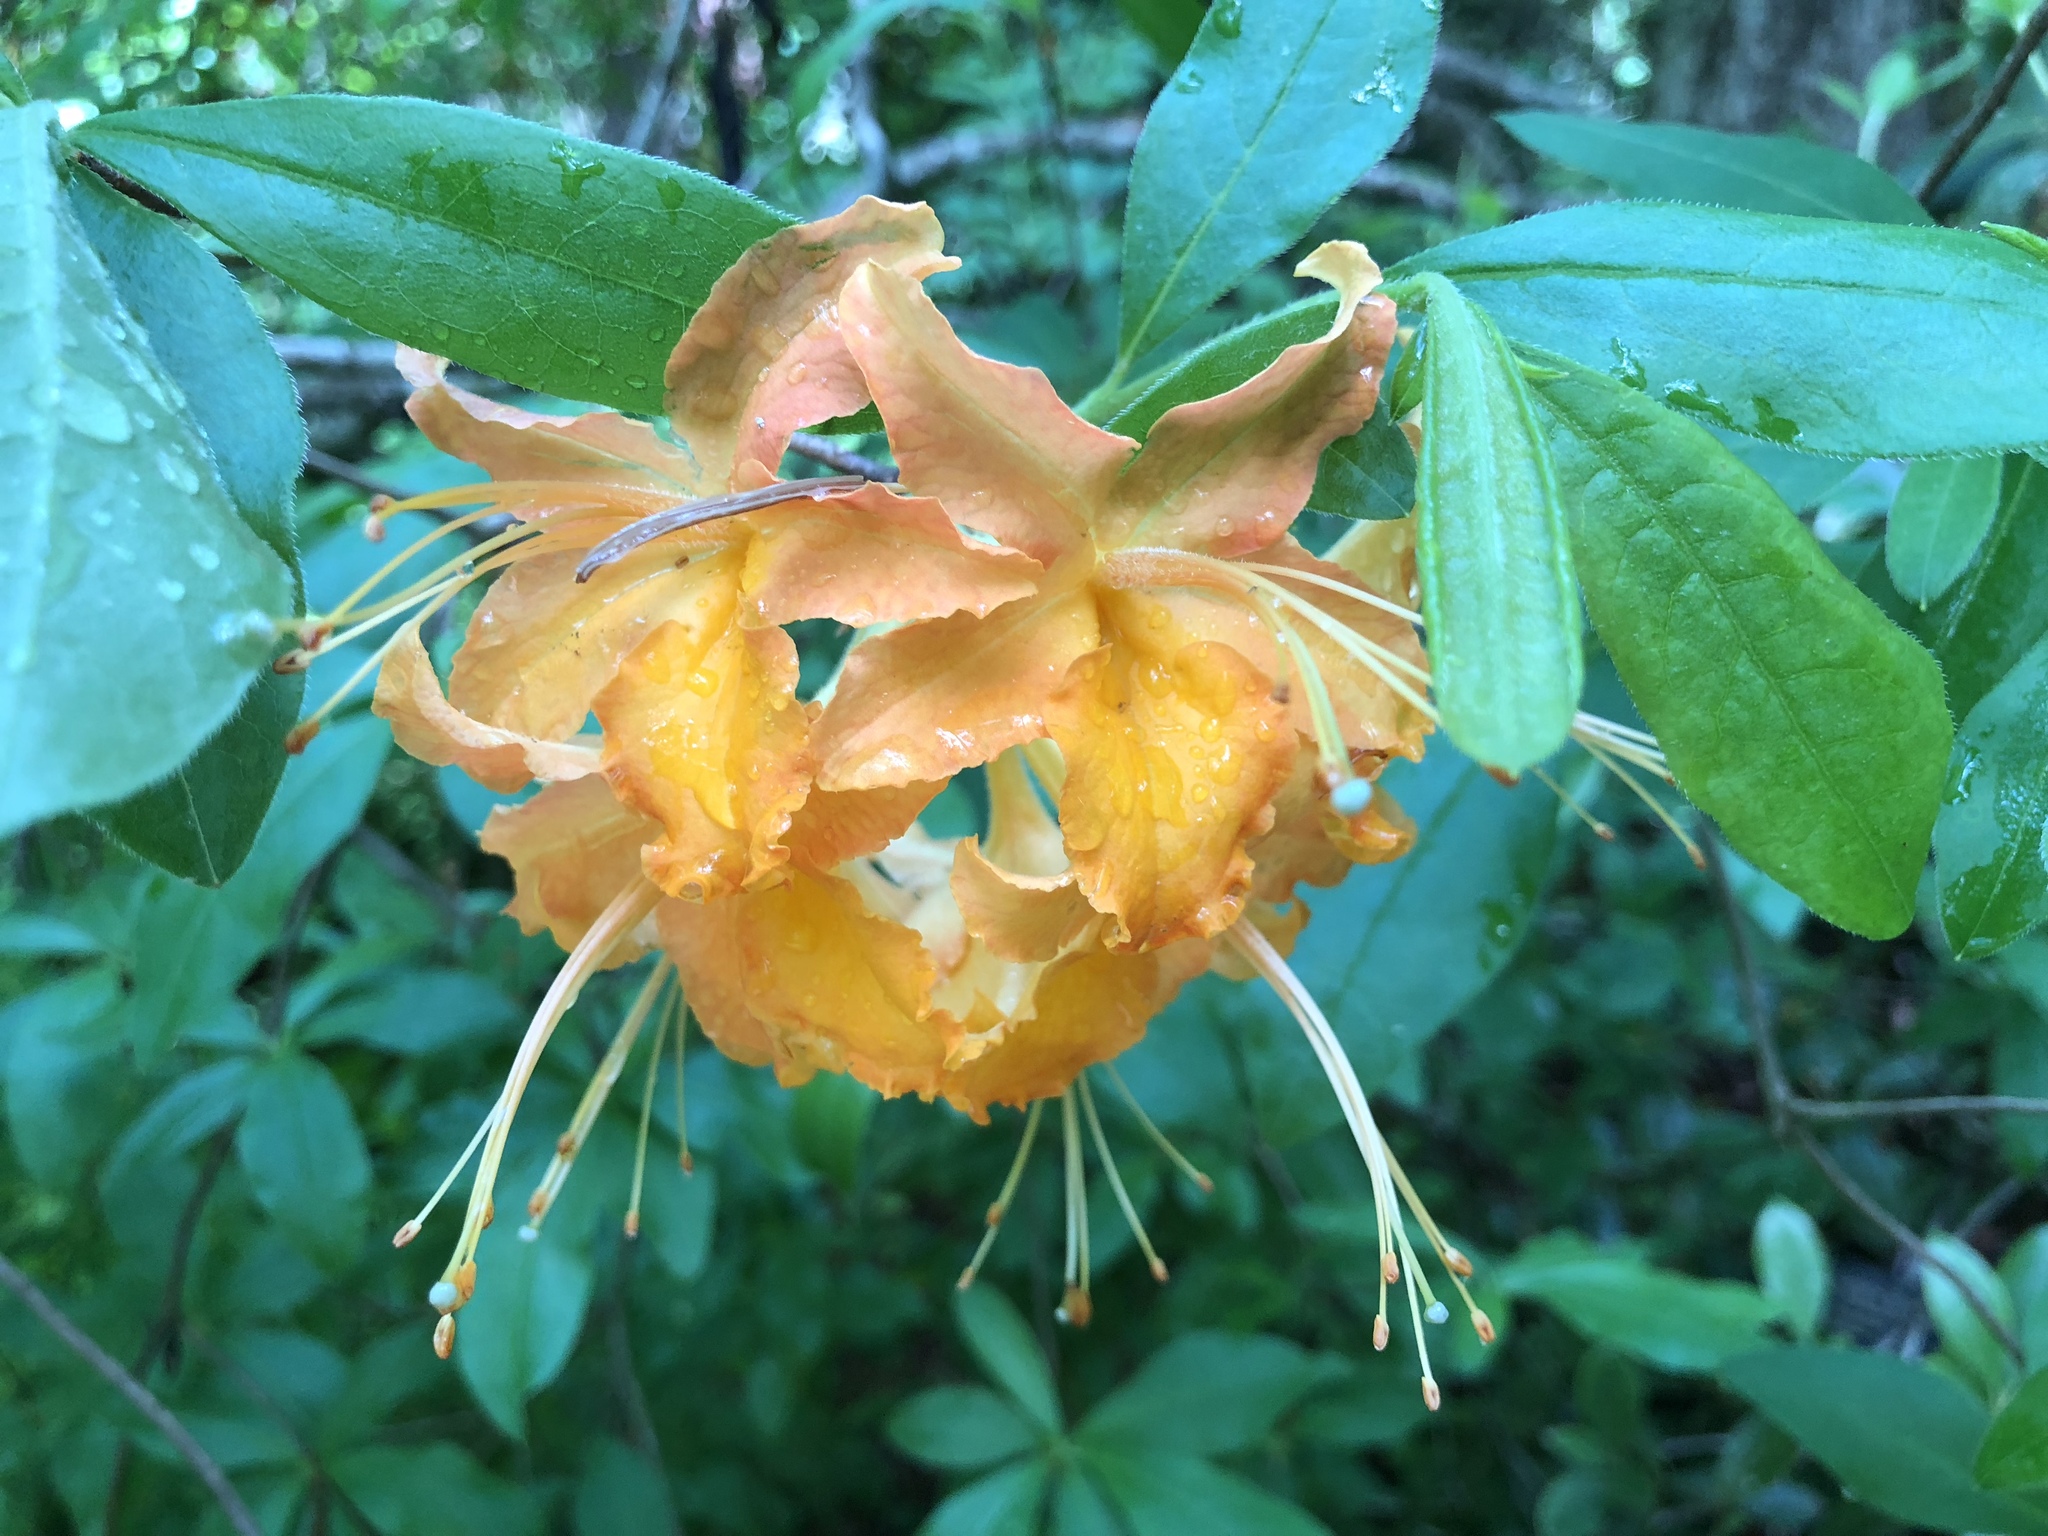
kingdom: Plantae
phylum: Tracheophyta
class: Magnoliopsida
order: Ericales
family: Ericaceae
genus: Rhododendron
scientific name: Rhododendron calendulaceum
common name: Flame azalea
